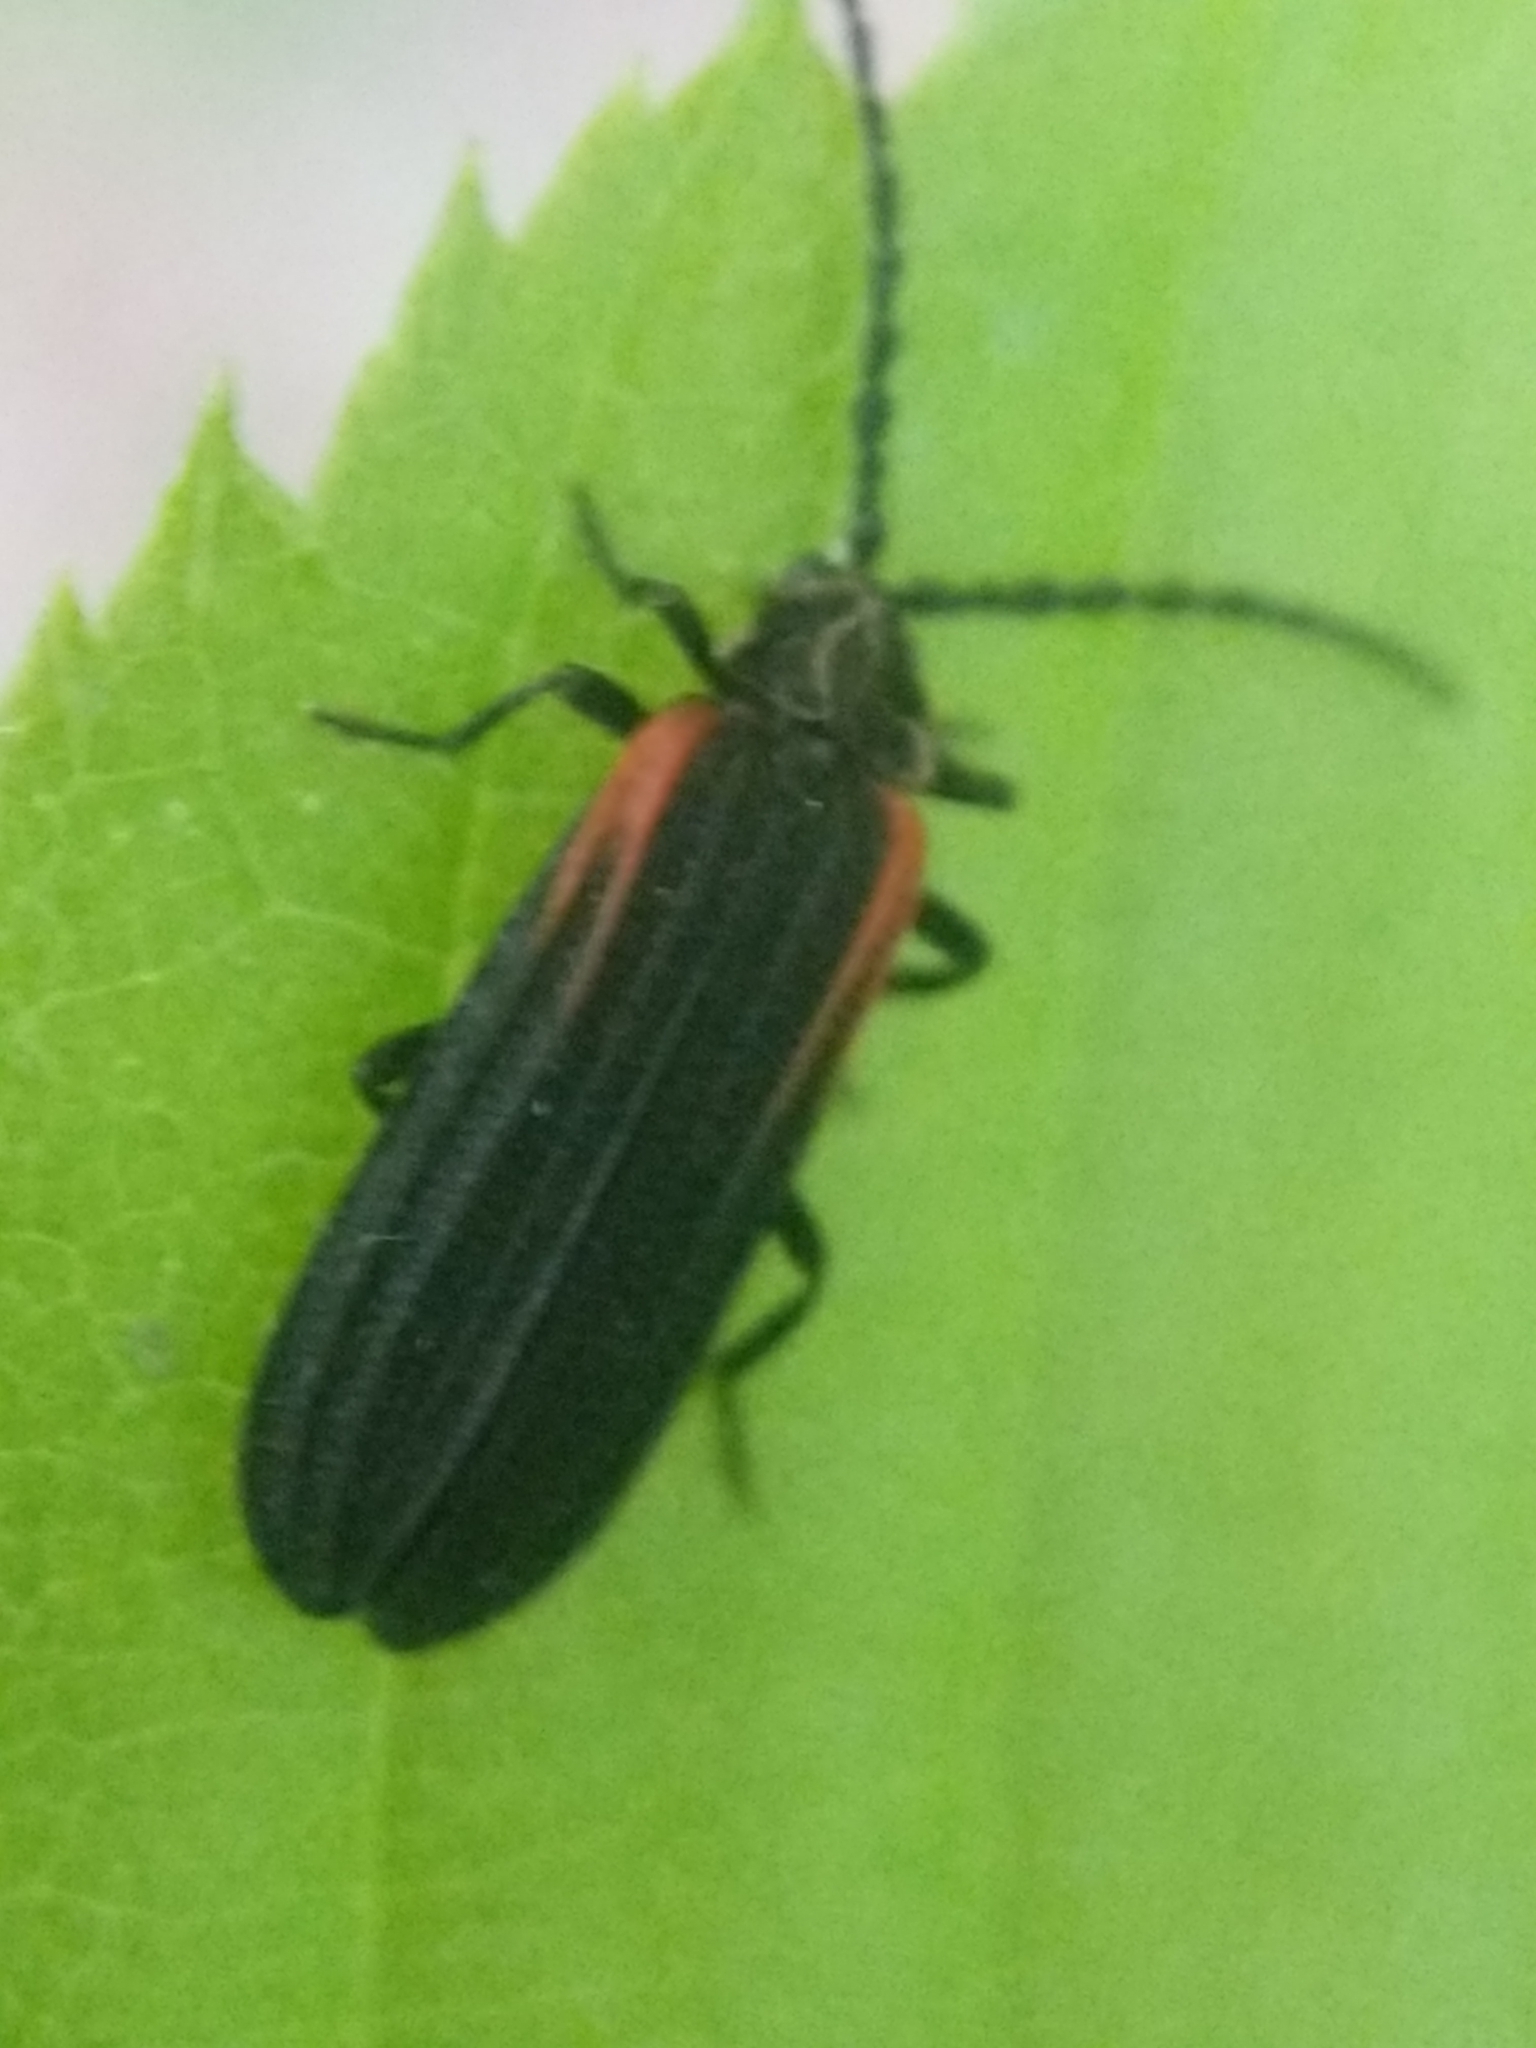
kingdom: Animalia
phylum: Arthropoda
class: Insecta
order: Coleoptera
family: Lycidae
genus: Greenarus
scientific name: Greenarus thoracicus
